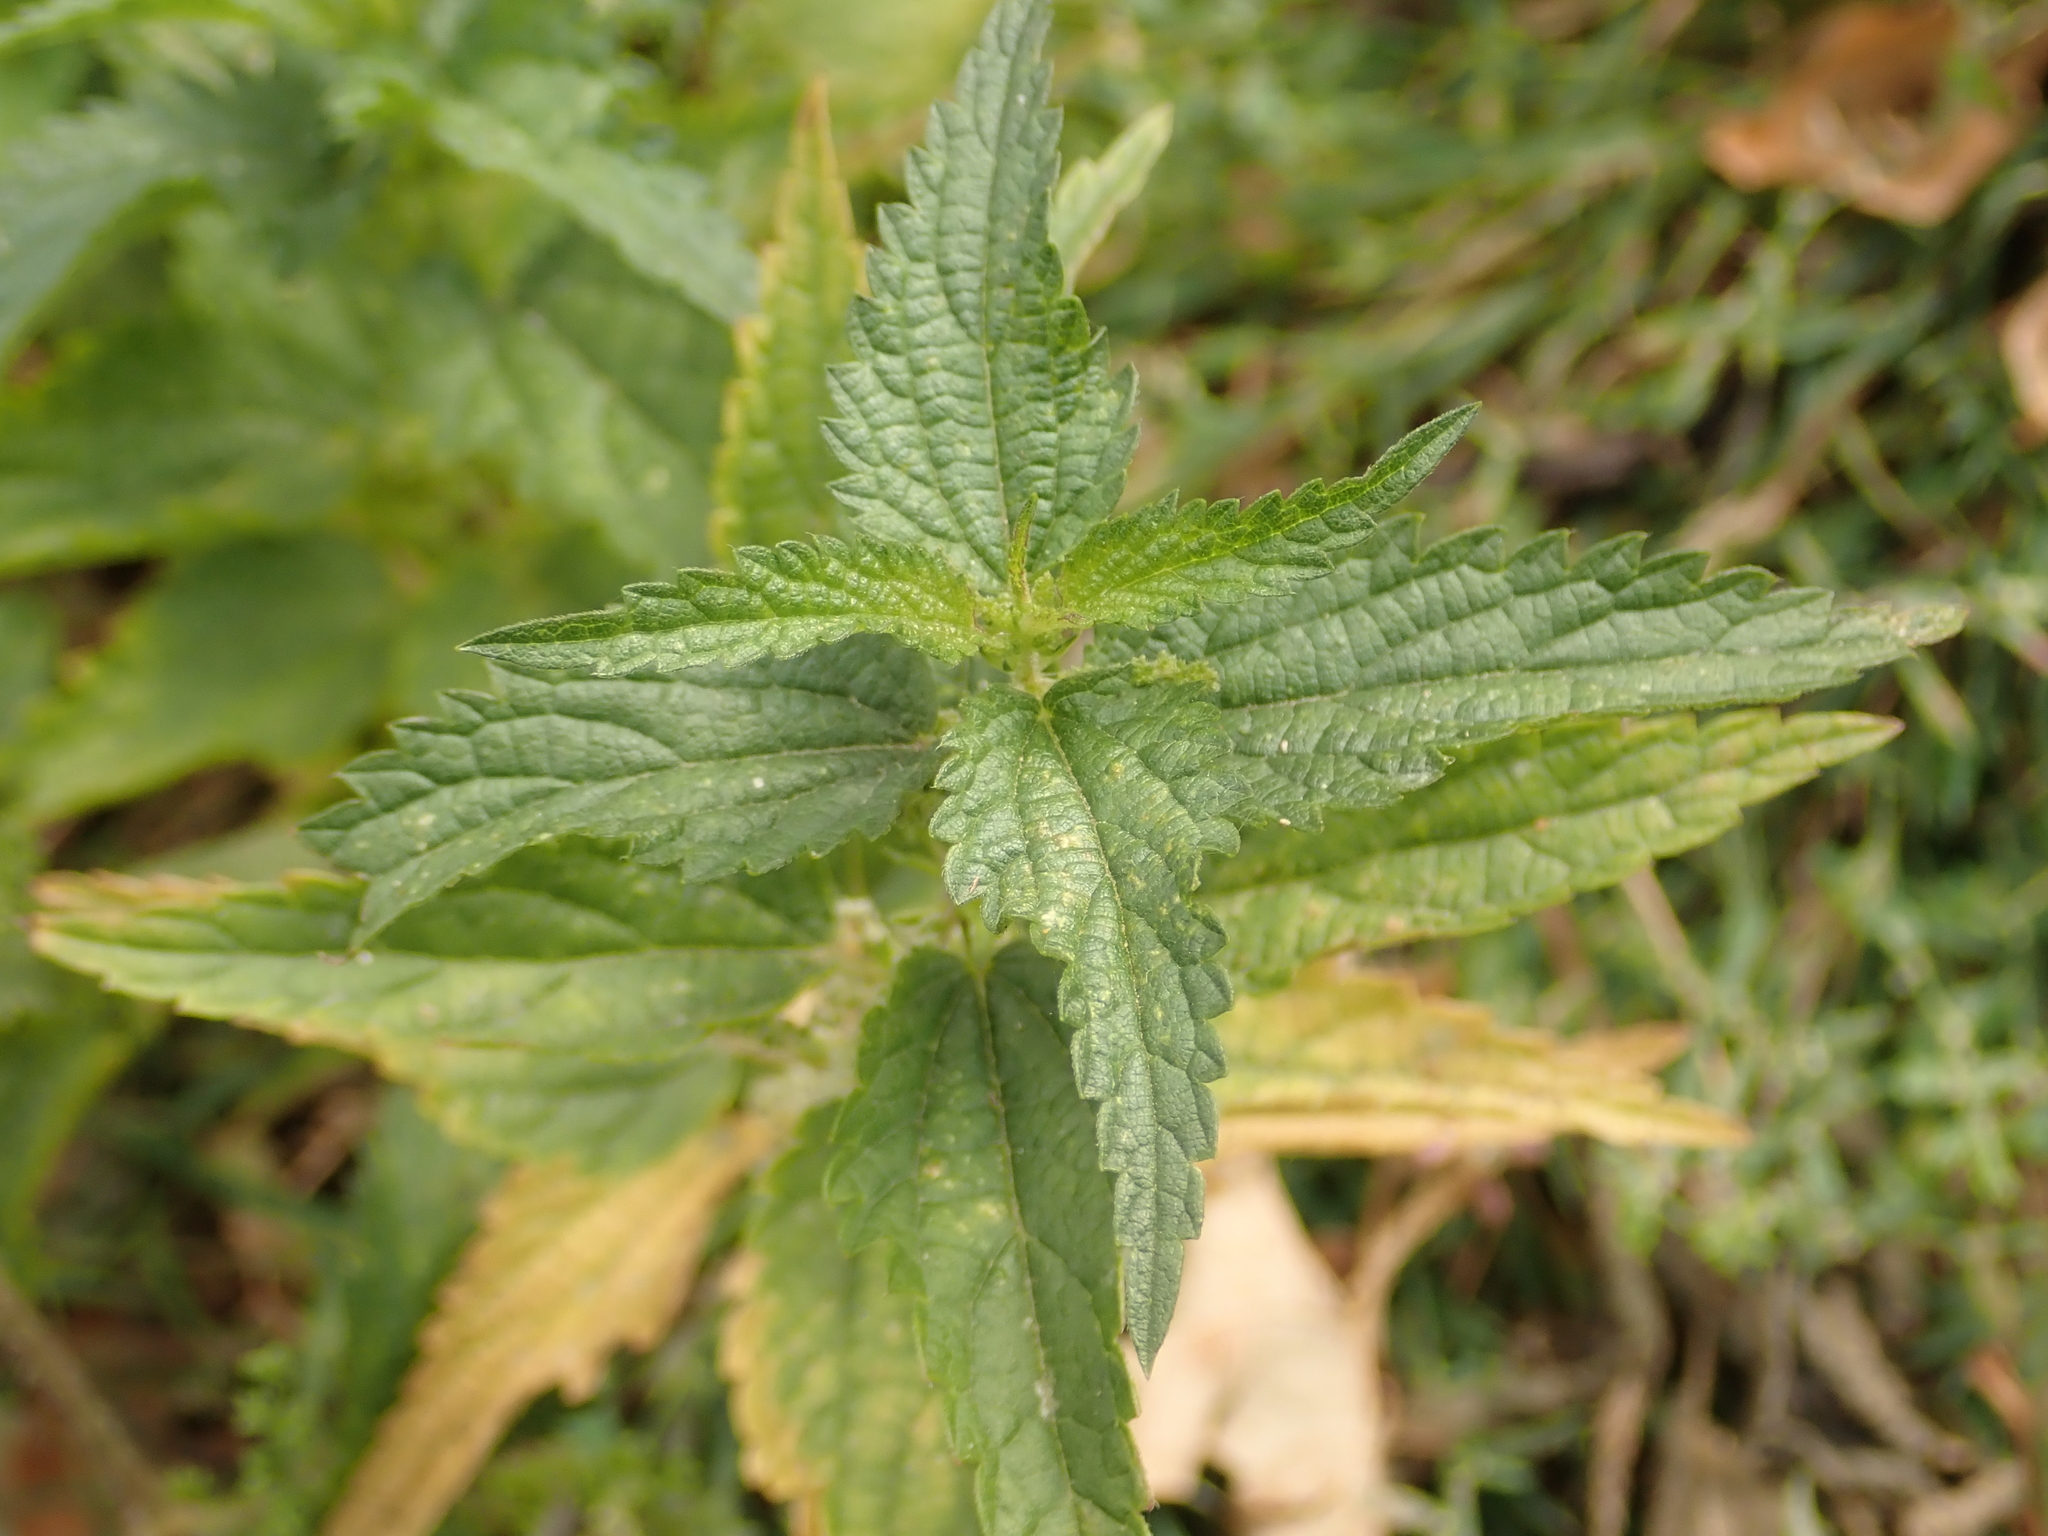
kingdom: Plantae
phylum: Tracheophyta
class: Magnoliopsida
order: Rosales
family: Urticaceae
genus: Urtica
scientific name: Urtica dioica
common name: Common nettle
